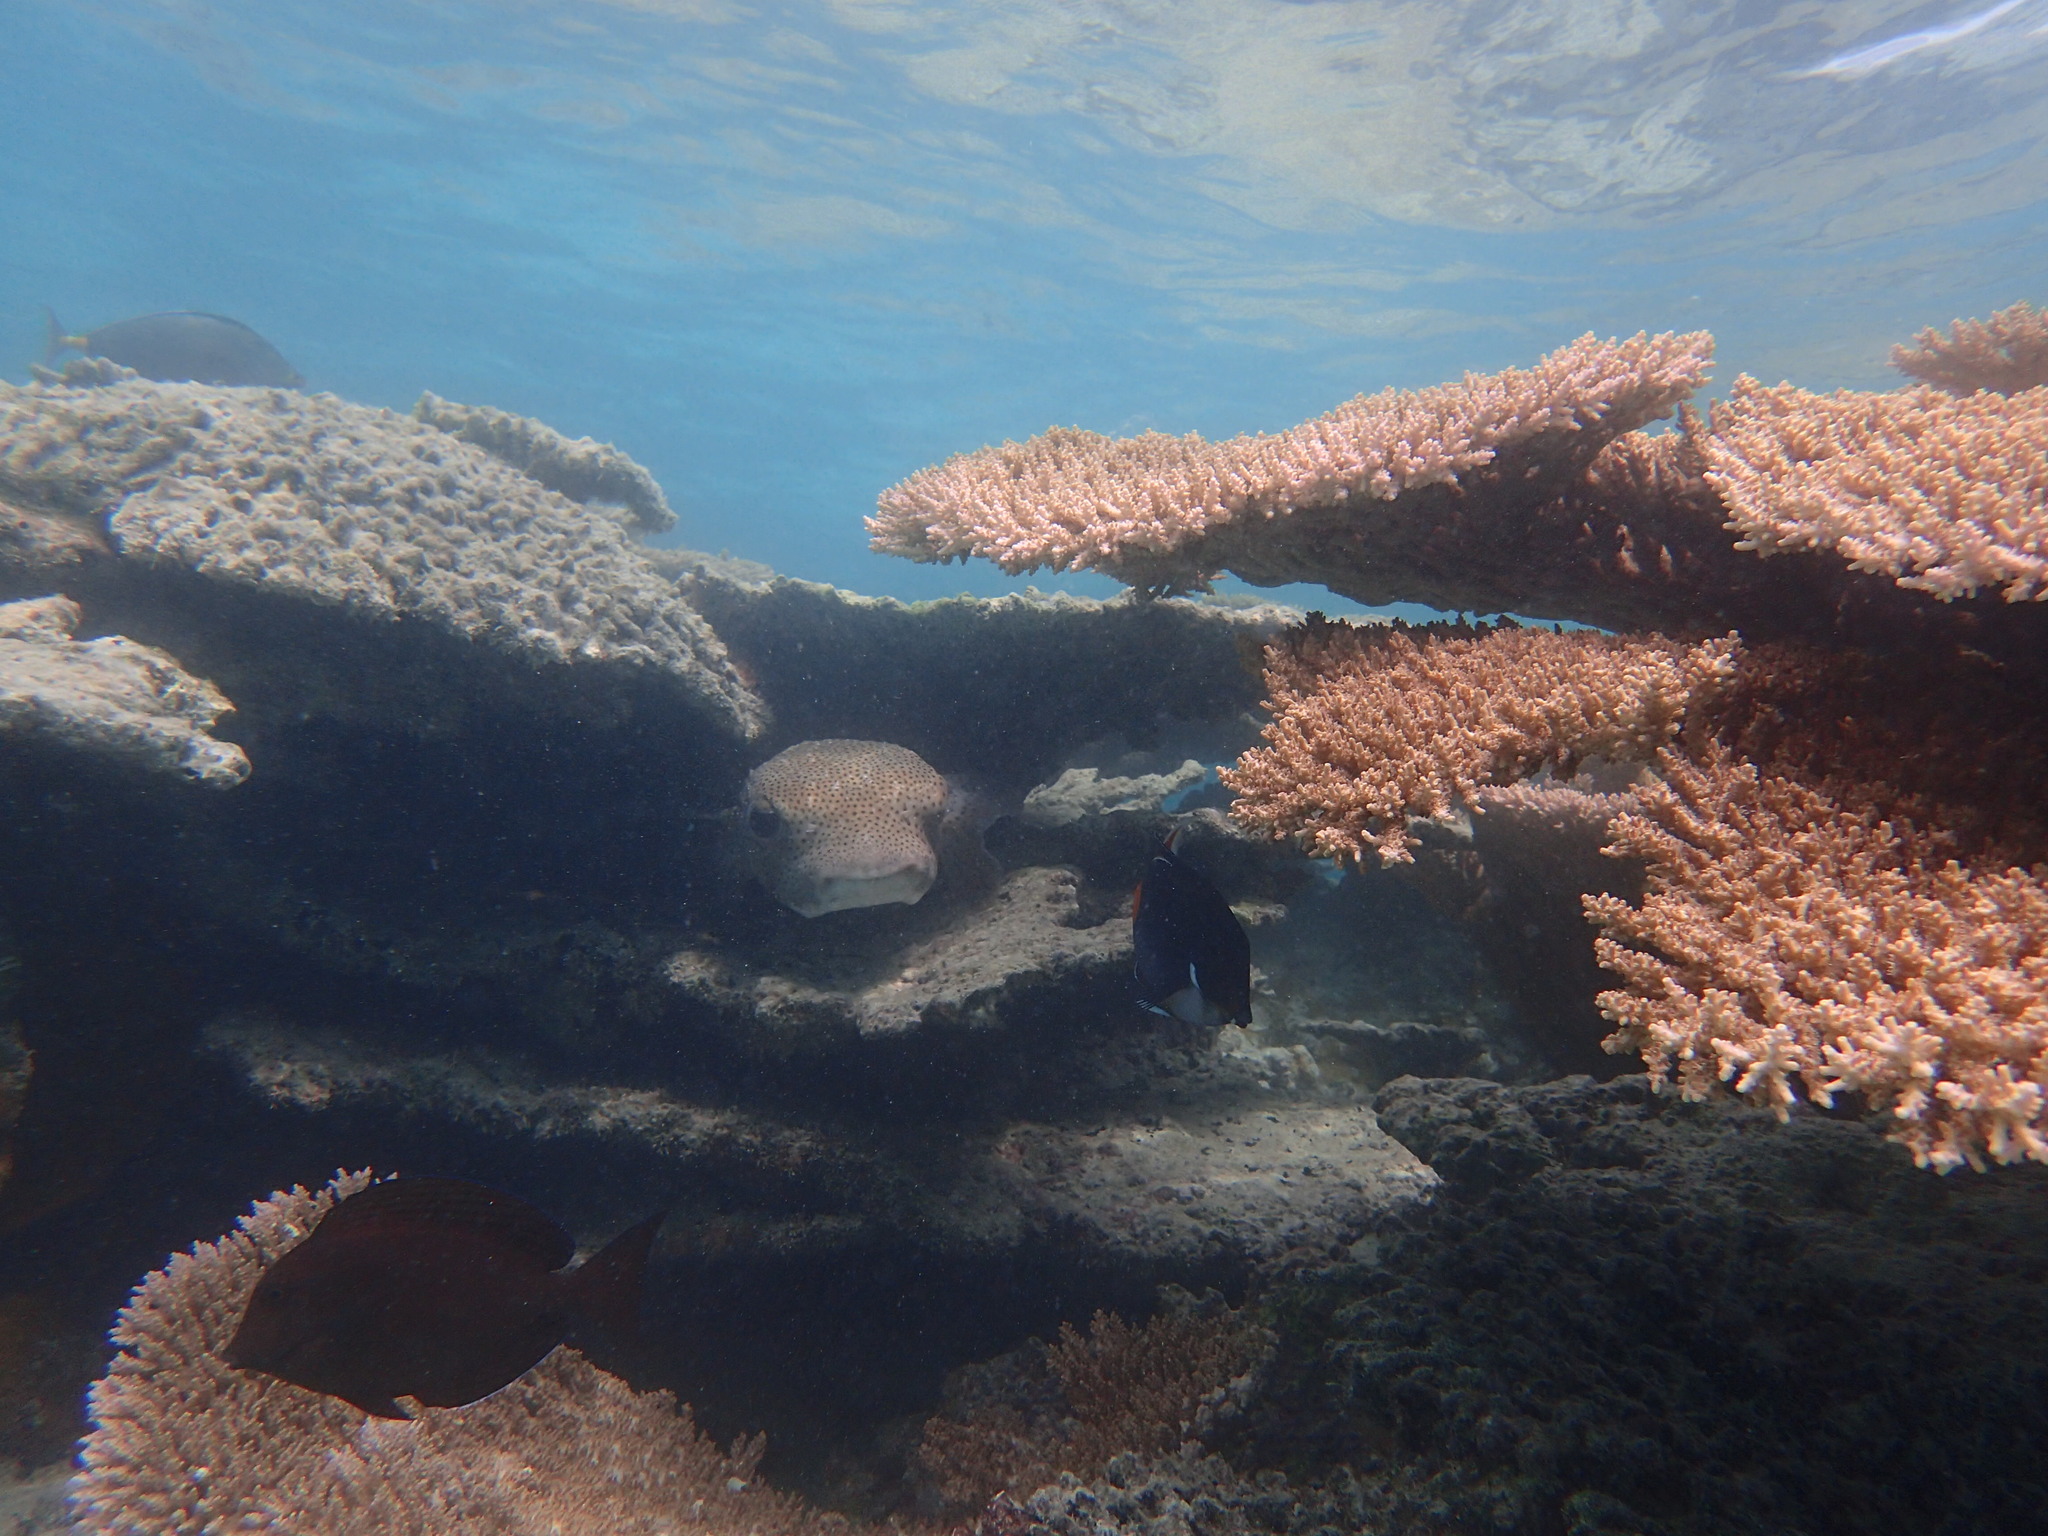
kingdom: Animalia
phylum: Chordata
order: Tetraodontiformes
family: Diodontidae
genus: Diodon
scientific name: Diodon hystrix
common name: Giant porcupinefish
